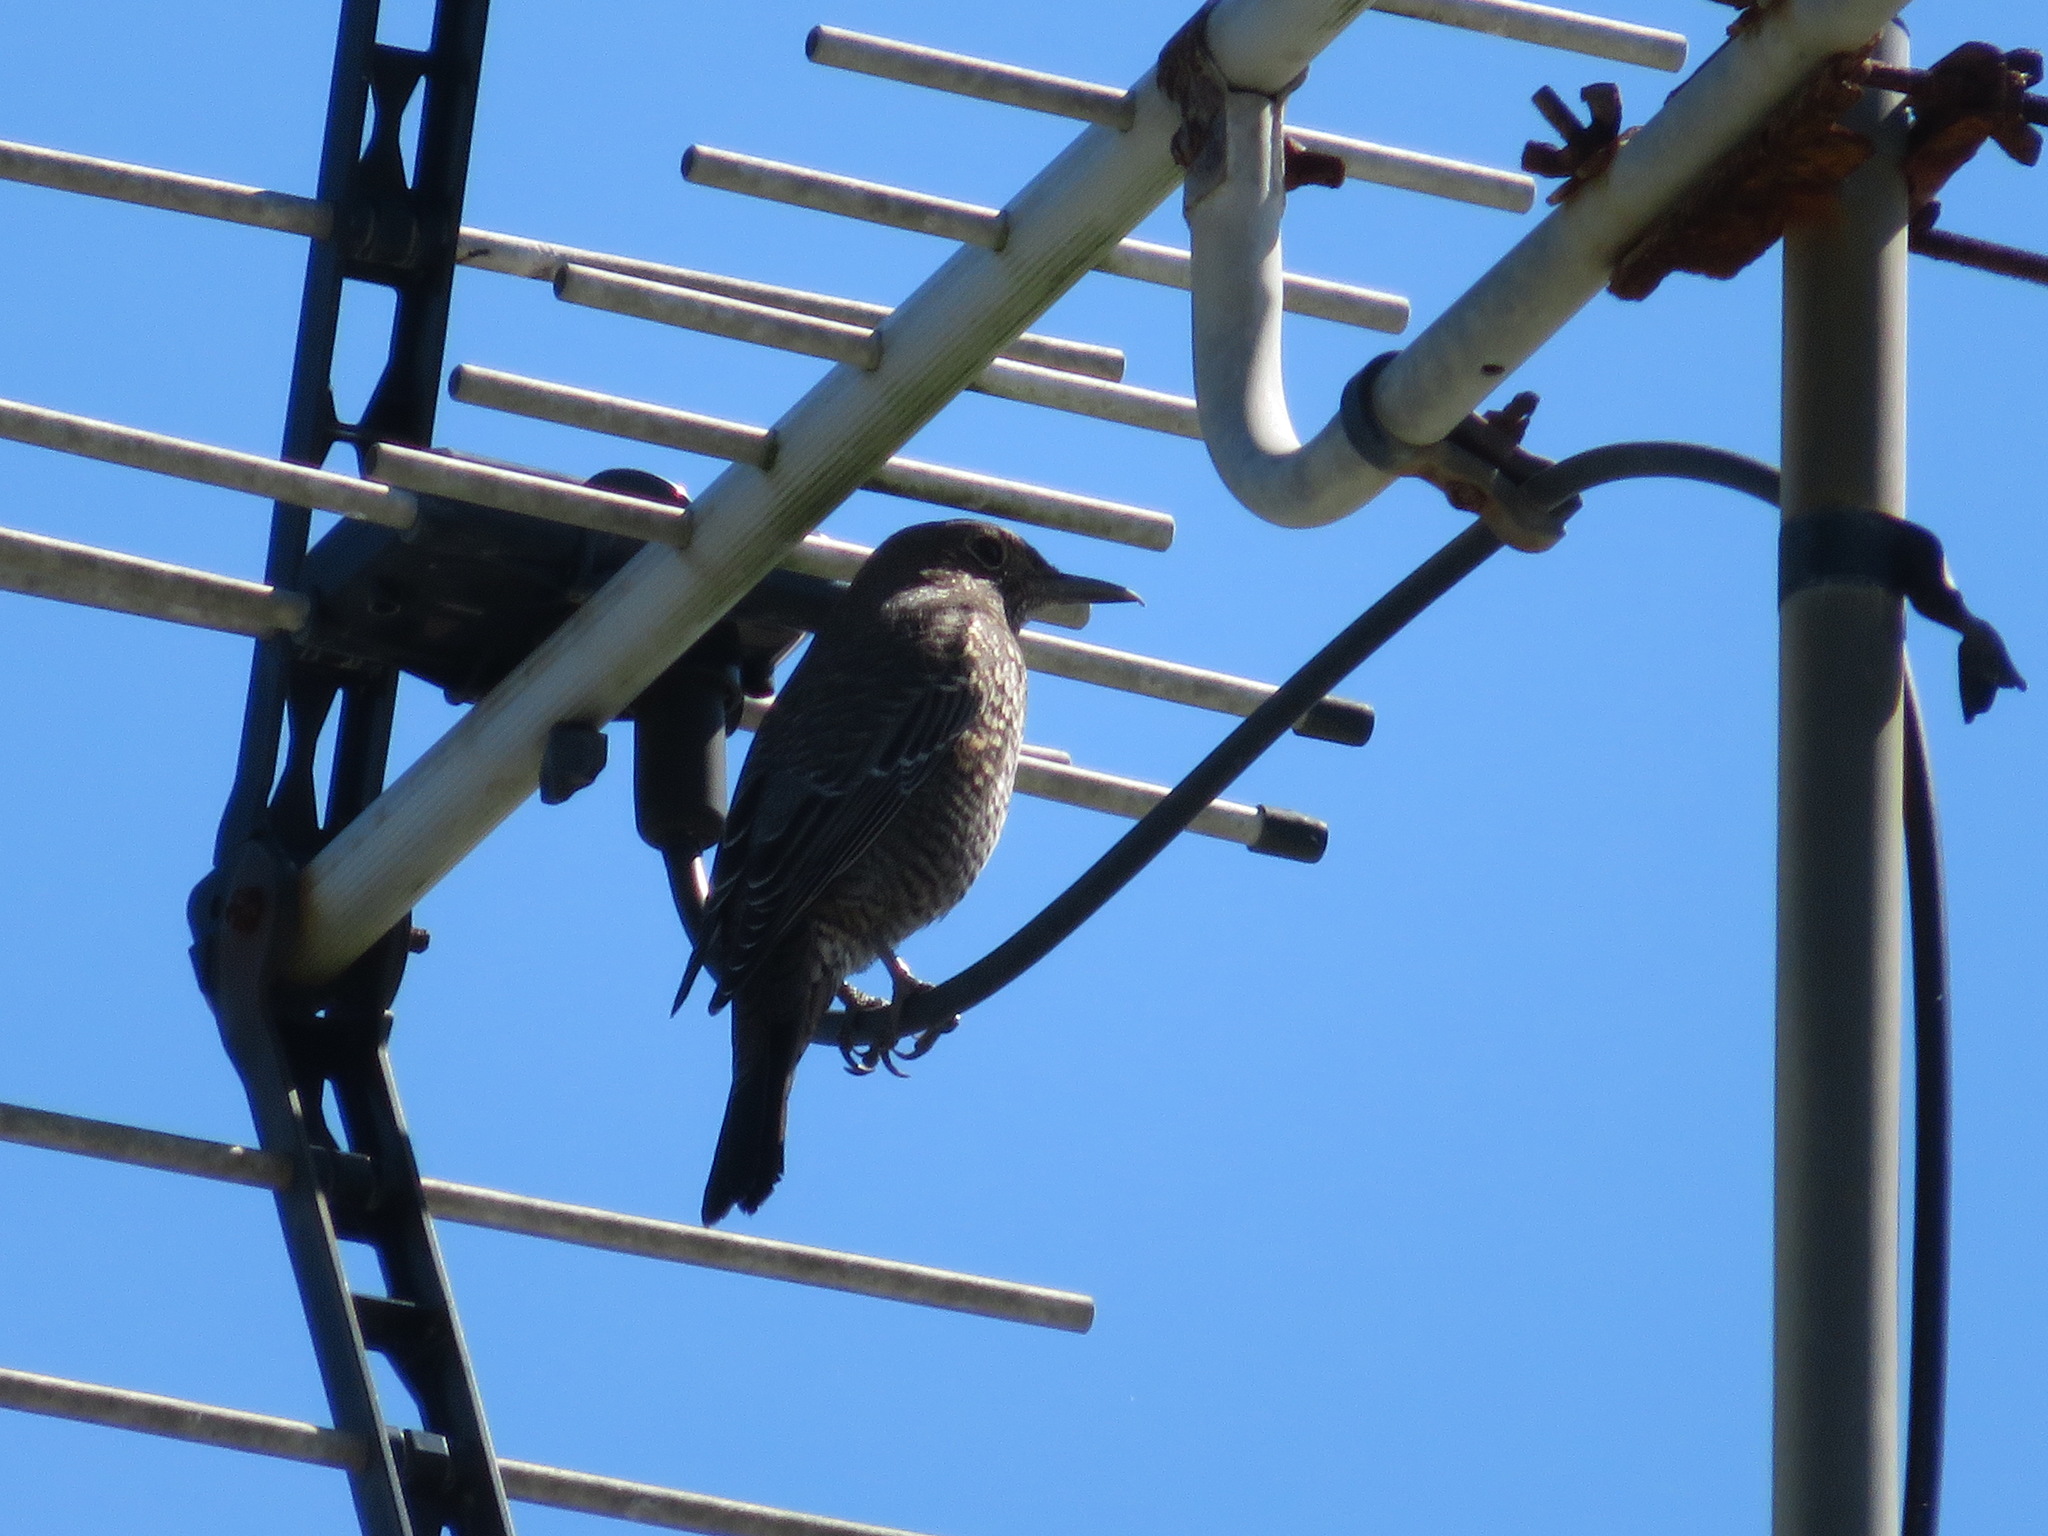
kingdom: Animalia
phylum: Chordata
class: Aves
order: Passeriformes
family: Muscicapidae
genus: Monticola
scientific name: Monticola solitarius
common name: Blue rock thrush
